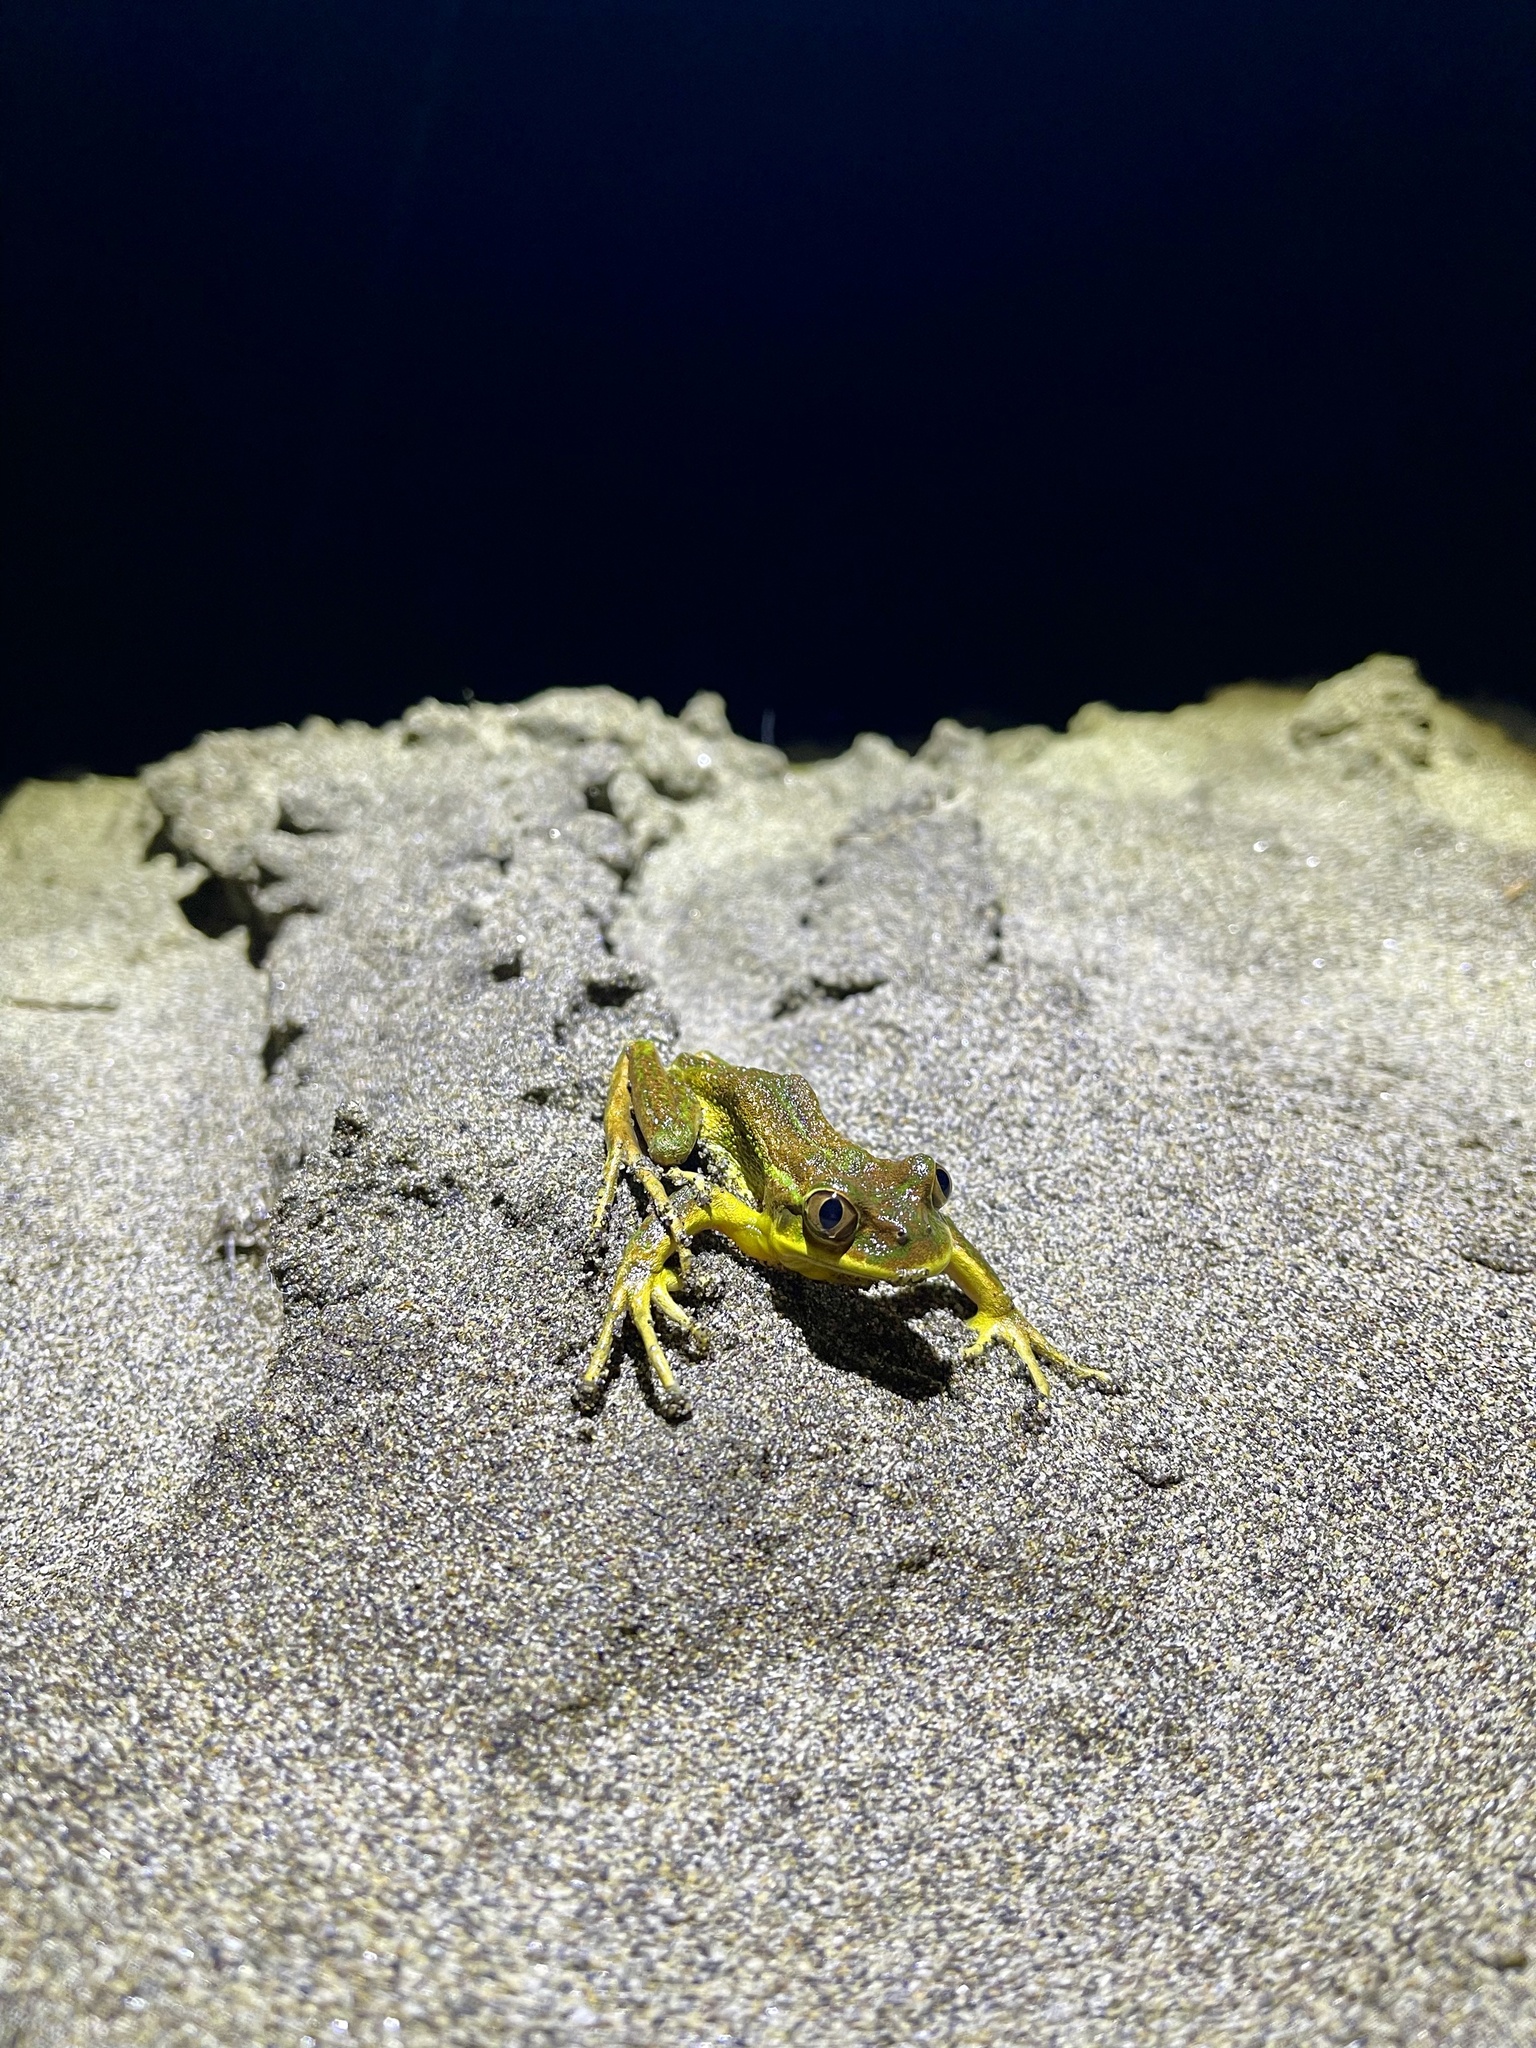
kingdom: Animalia
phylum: Chordata
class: Amphibia
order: Anura
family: Batrachylidae
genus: Hylorina
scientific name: Hylorina sylvatica
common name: Emerald forest frog
